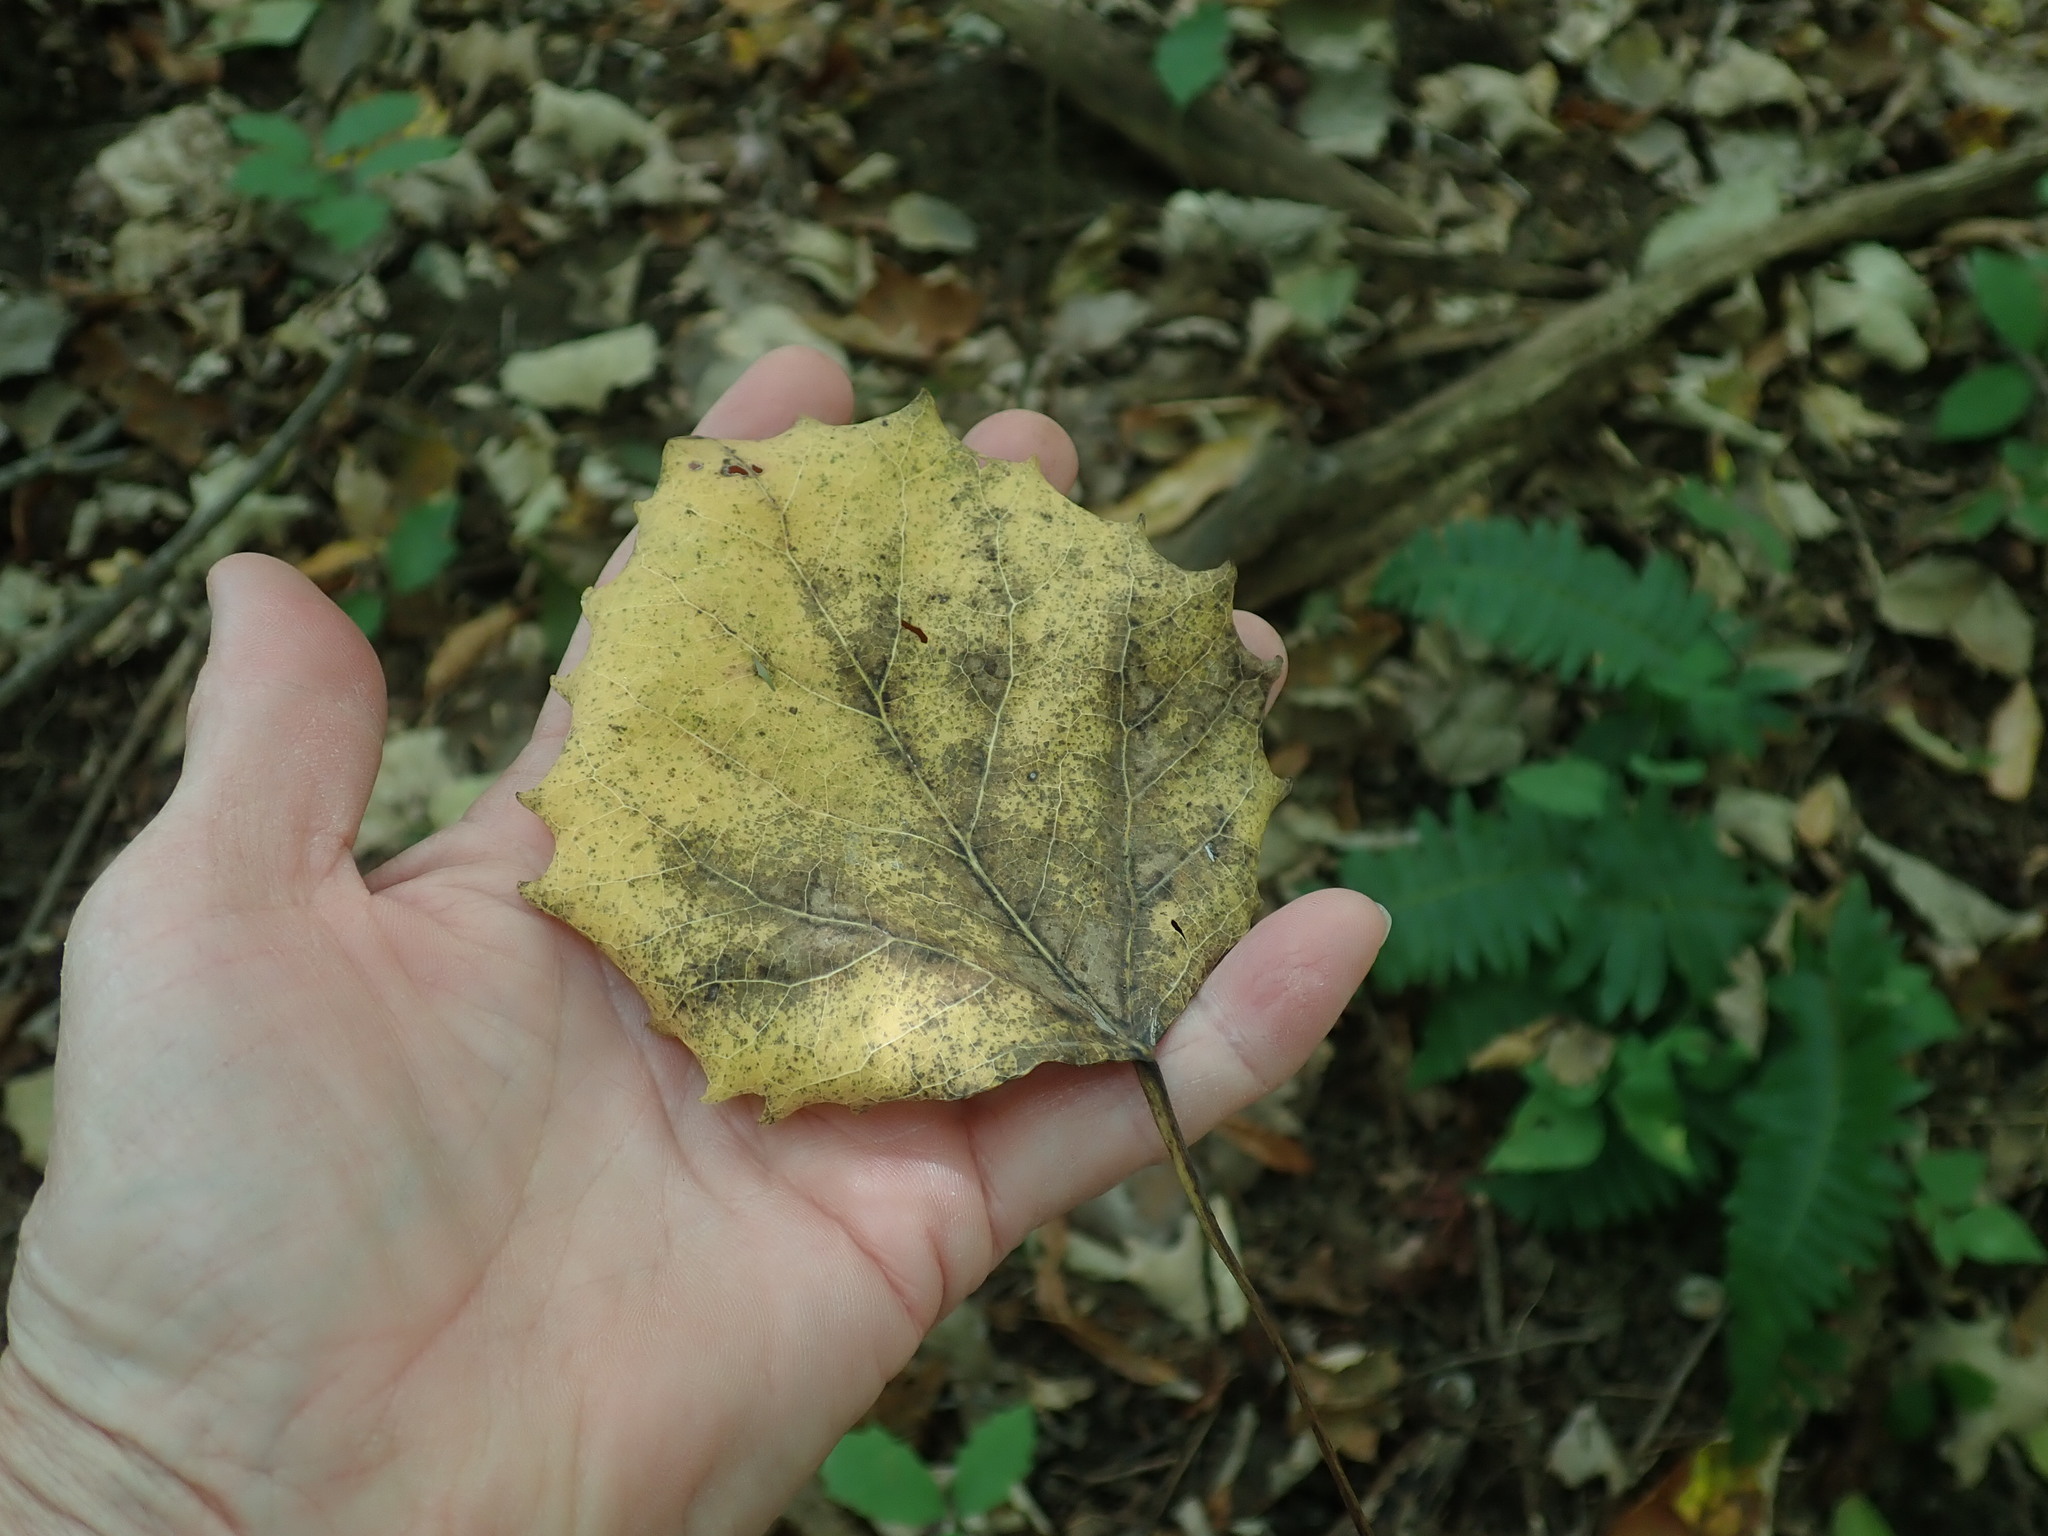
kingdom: Plantae
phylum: Tracheophyta
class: Magnoliopsida
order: Malpighiales
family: Salicaceae
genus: Populus
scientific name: Populus grandidentata
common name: Bigtooth aspen
